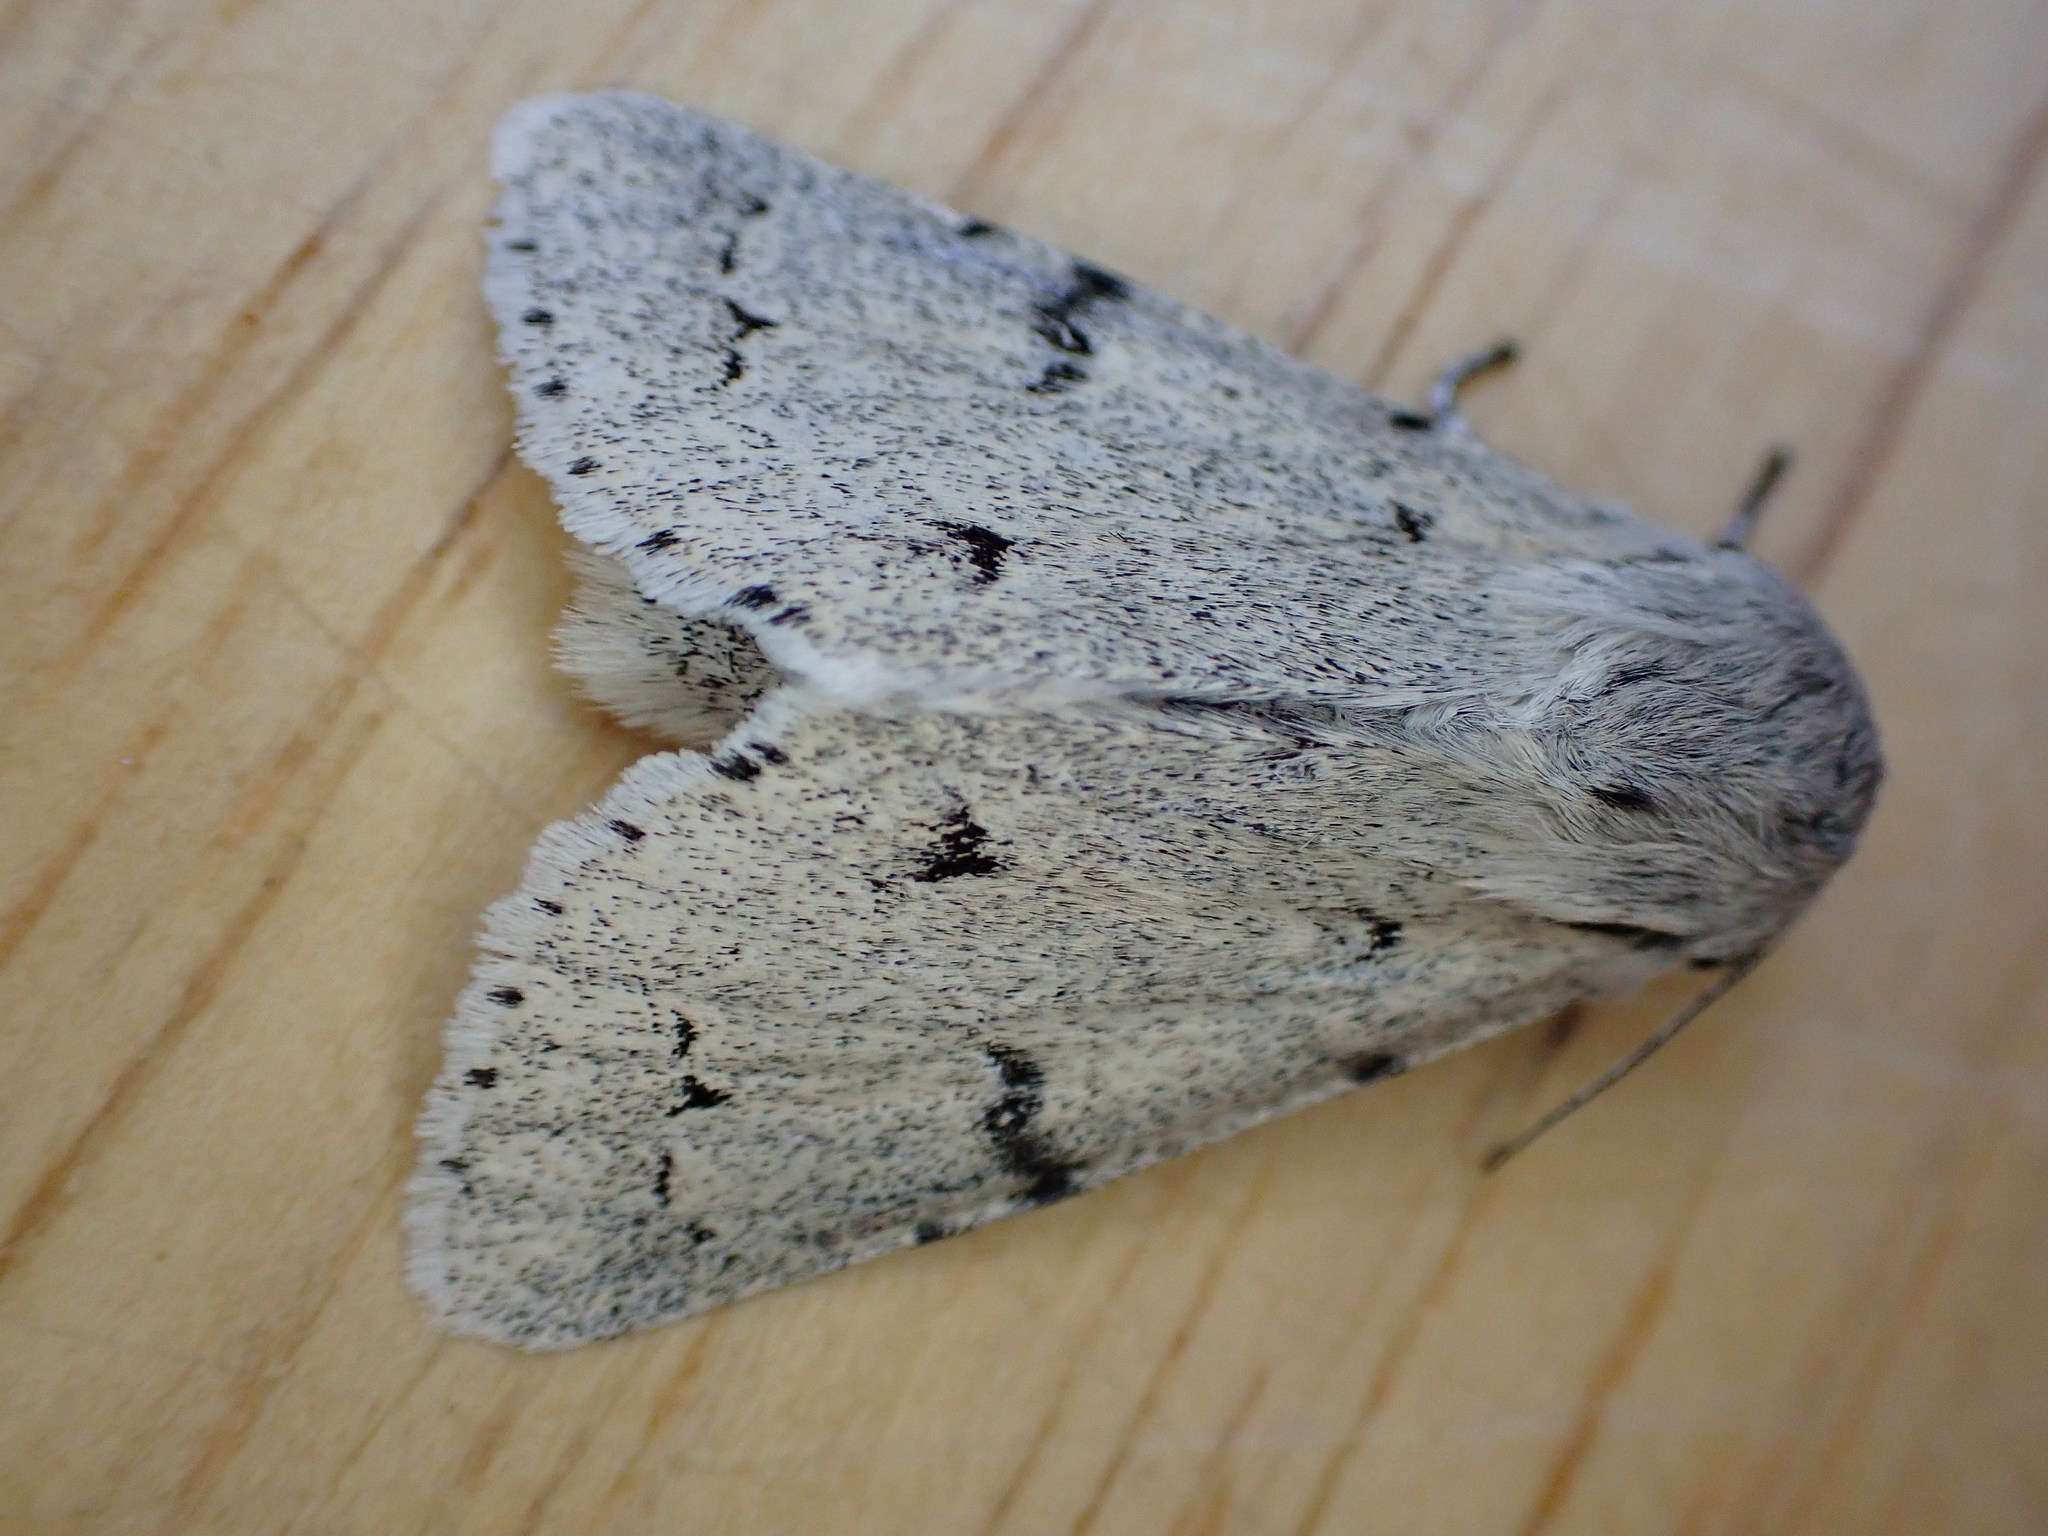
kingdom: Animalia
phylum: Arthropoda
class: Insecta
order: Lepidoptera
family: Noctuidae
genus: Acronicta
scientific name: Acronicta leporina
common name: Miller
